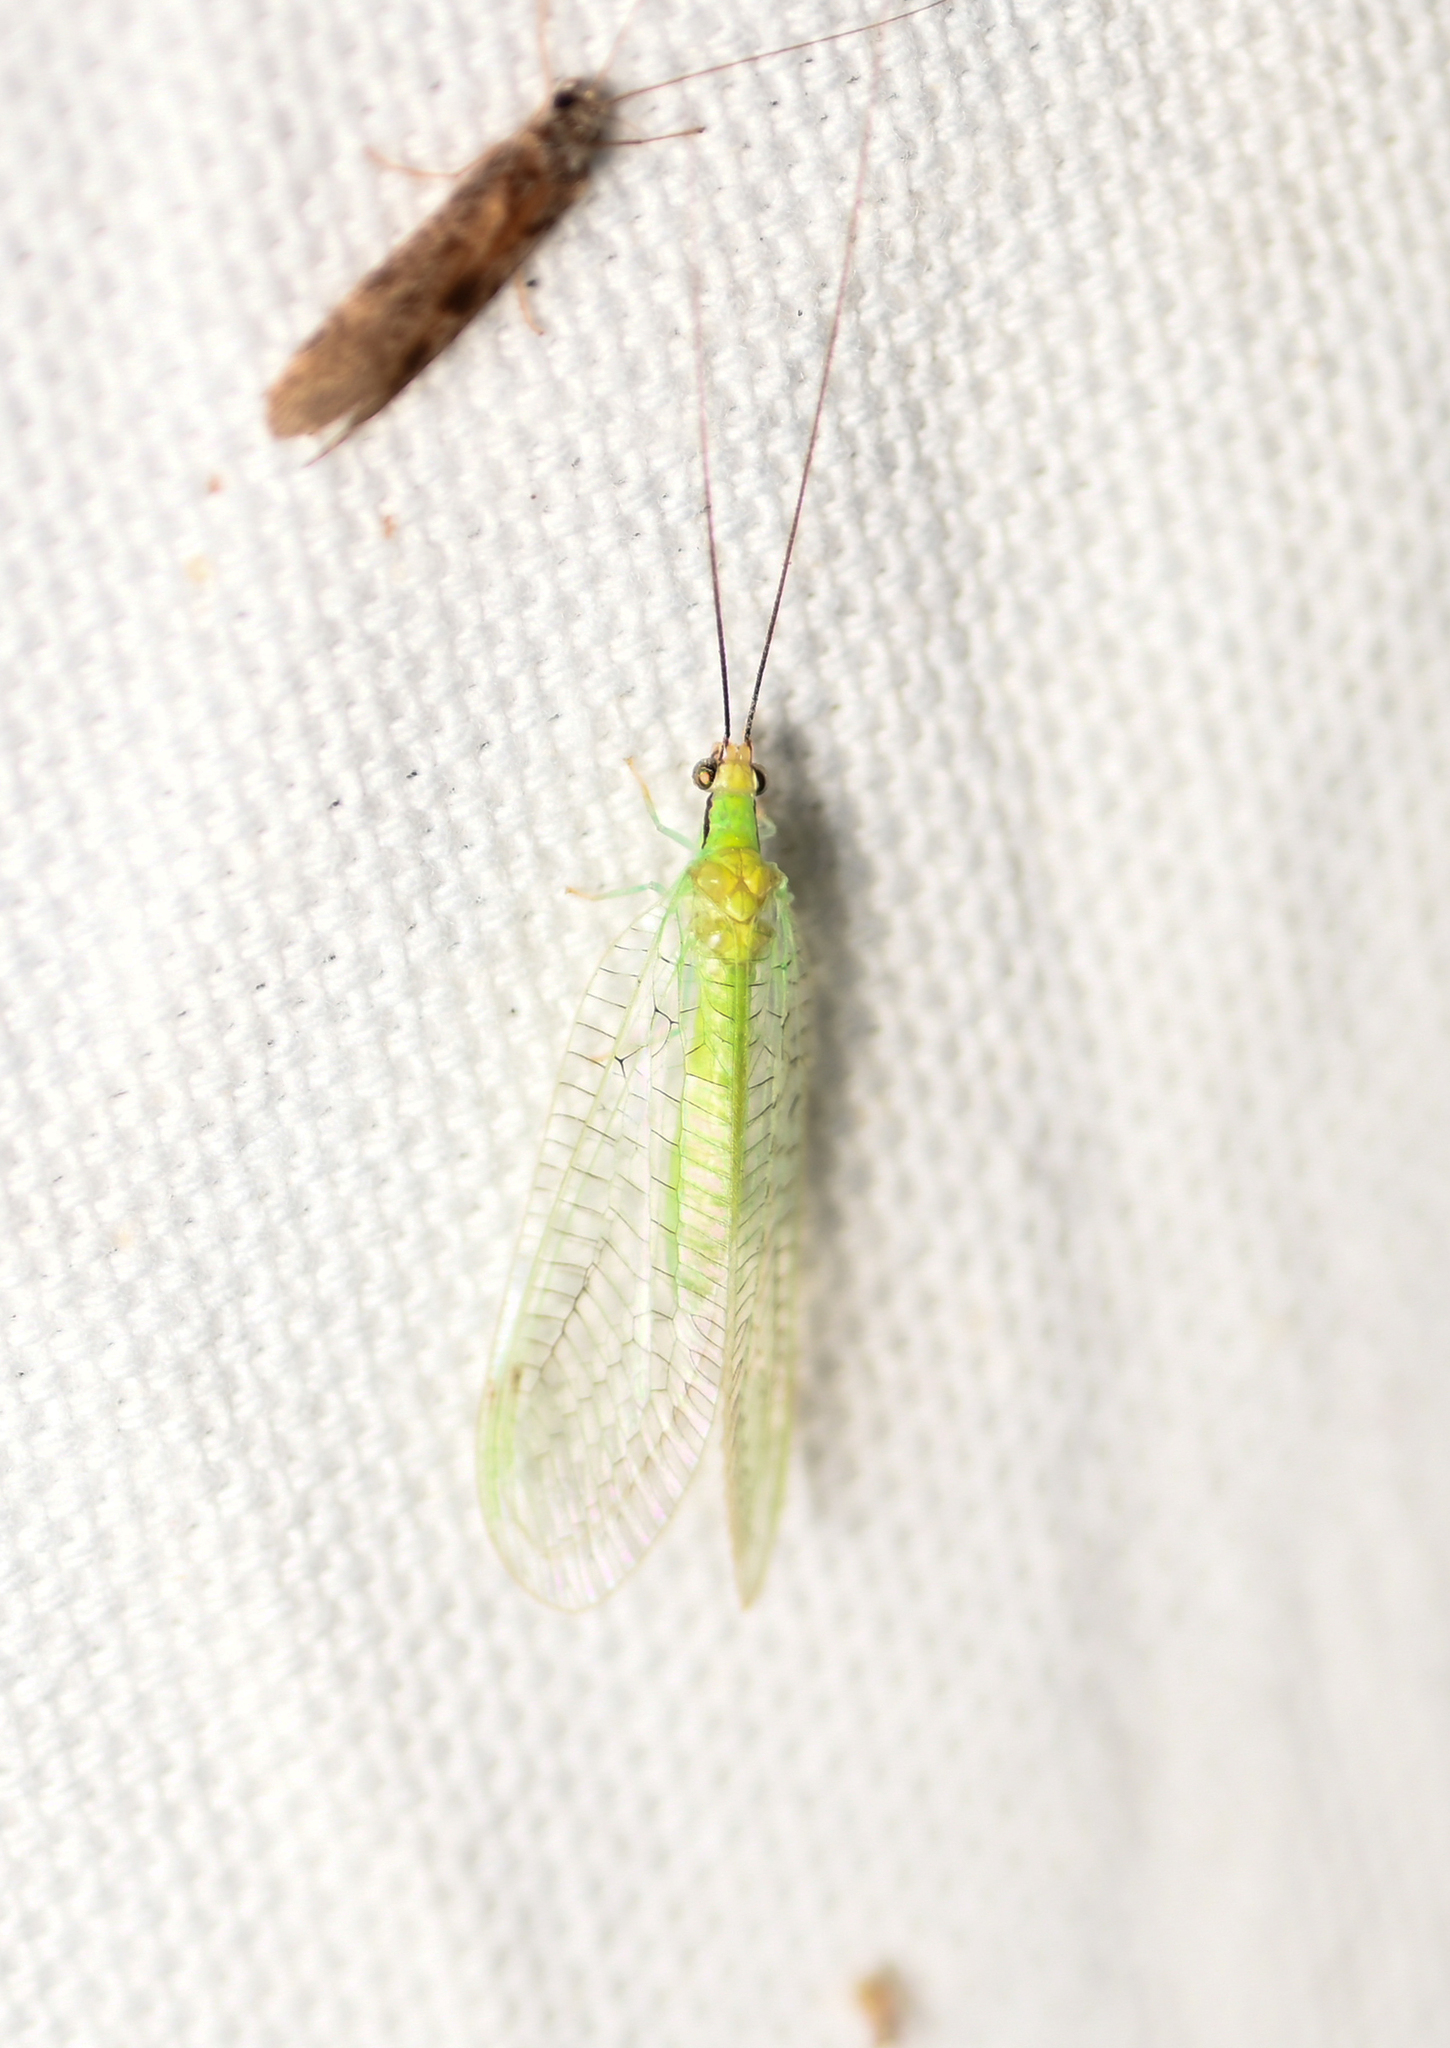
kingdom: Animalia
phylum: Arthropoda
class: Insecta
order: Neuroptera
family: Chrysopidae
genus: Leucochrysa
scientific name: Leucochrysa pavida
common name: Lichen-carrying green lacewing
